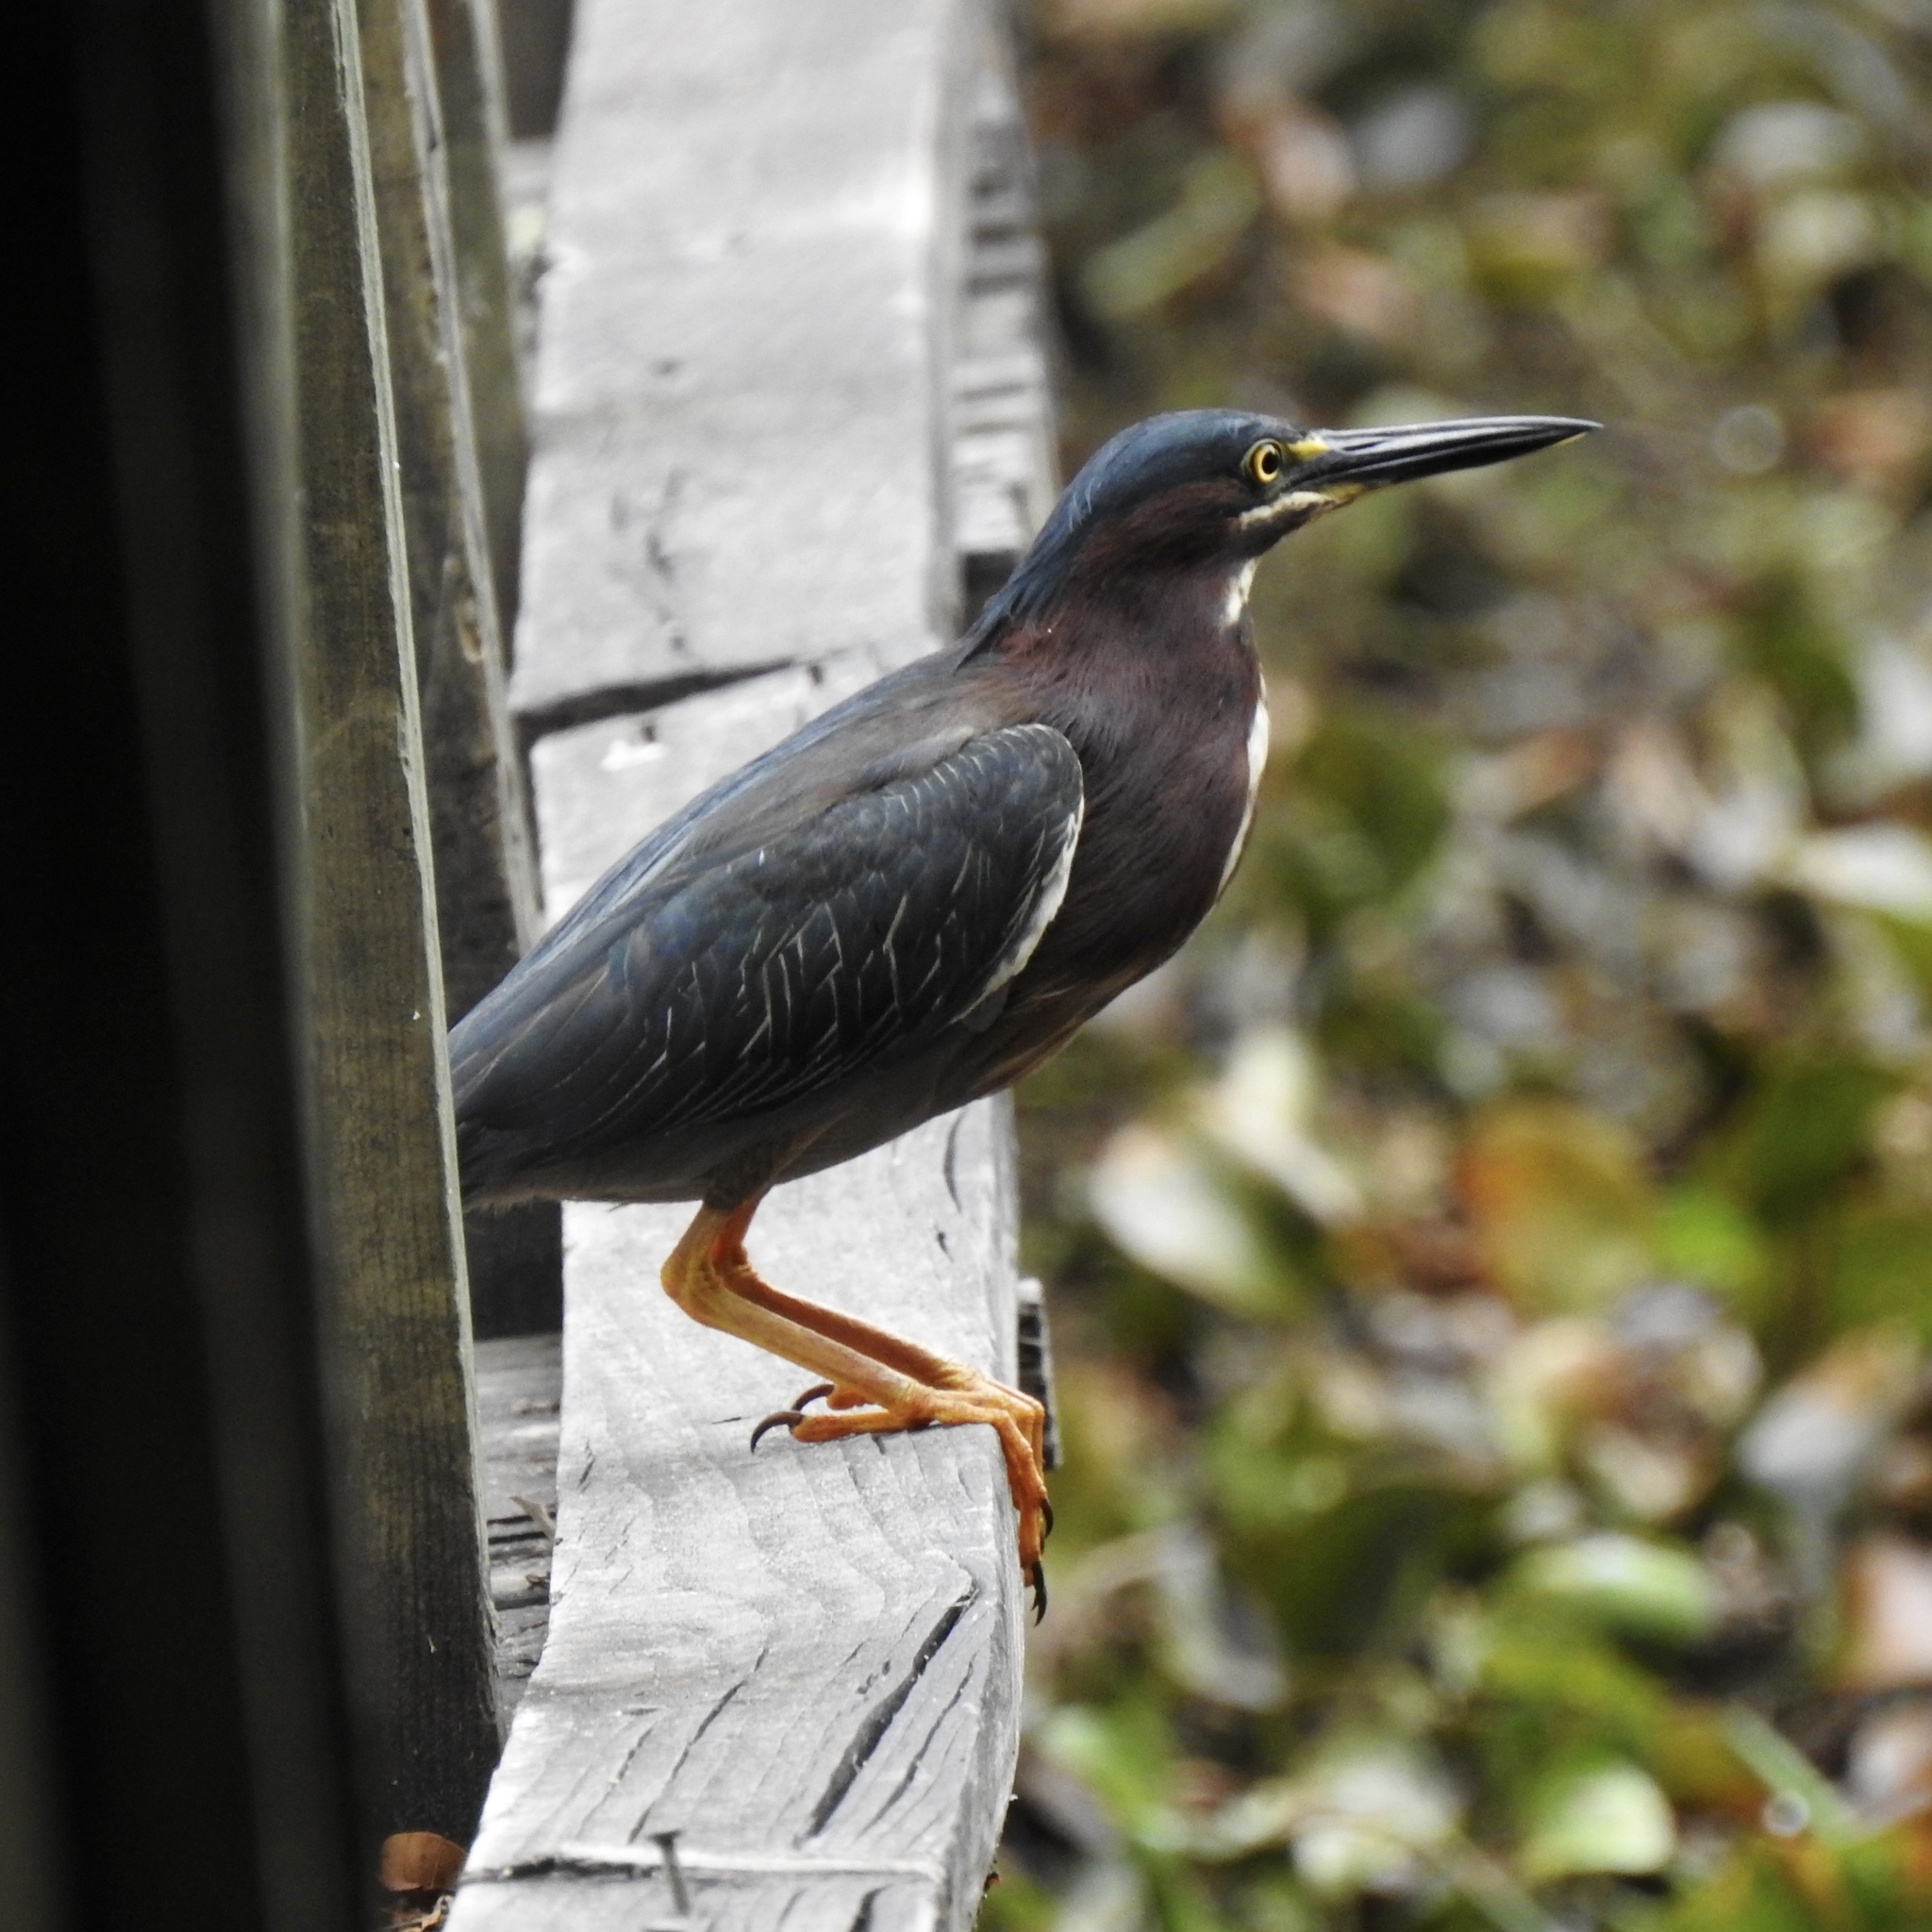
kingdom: Animalia
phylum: Chordata
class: Aves
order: Pelecaniformes
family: Ardeidae
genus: Butorides
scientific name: Butorides virescens
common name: Green heron
